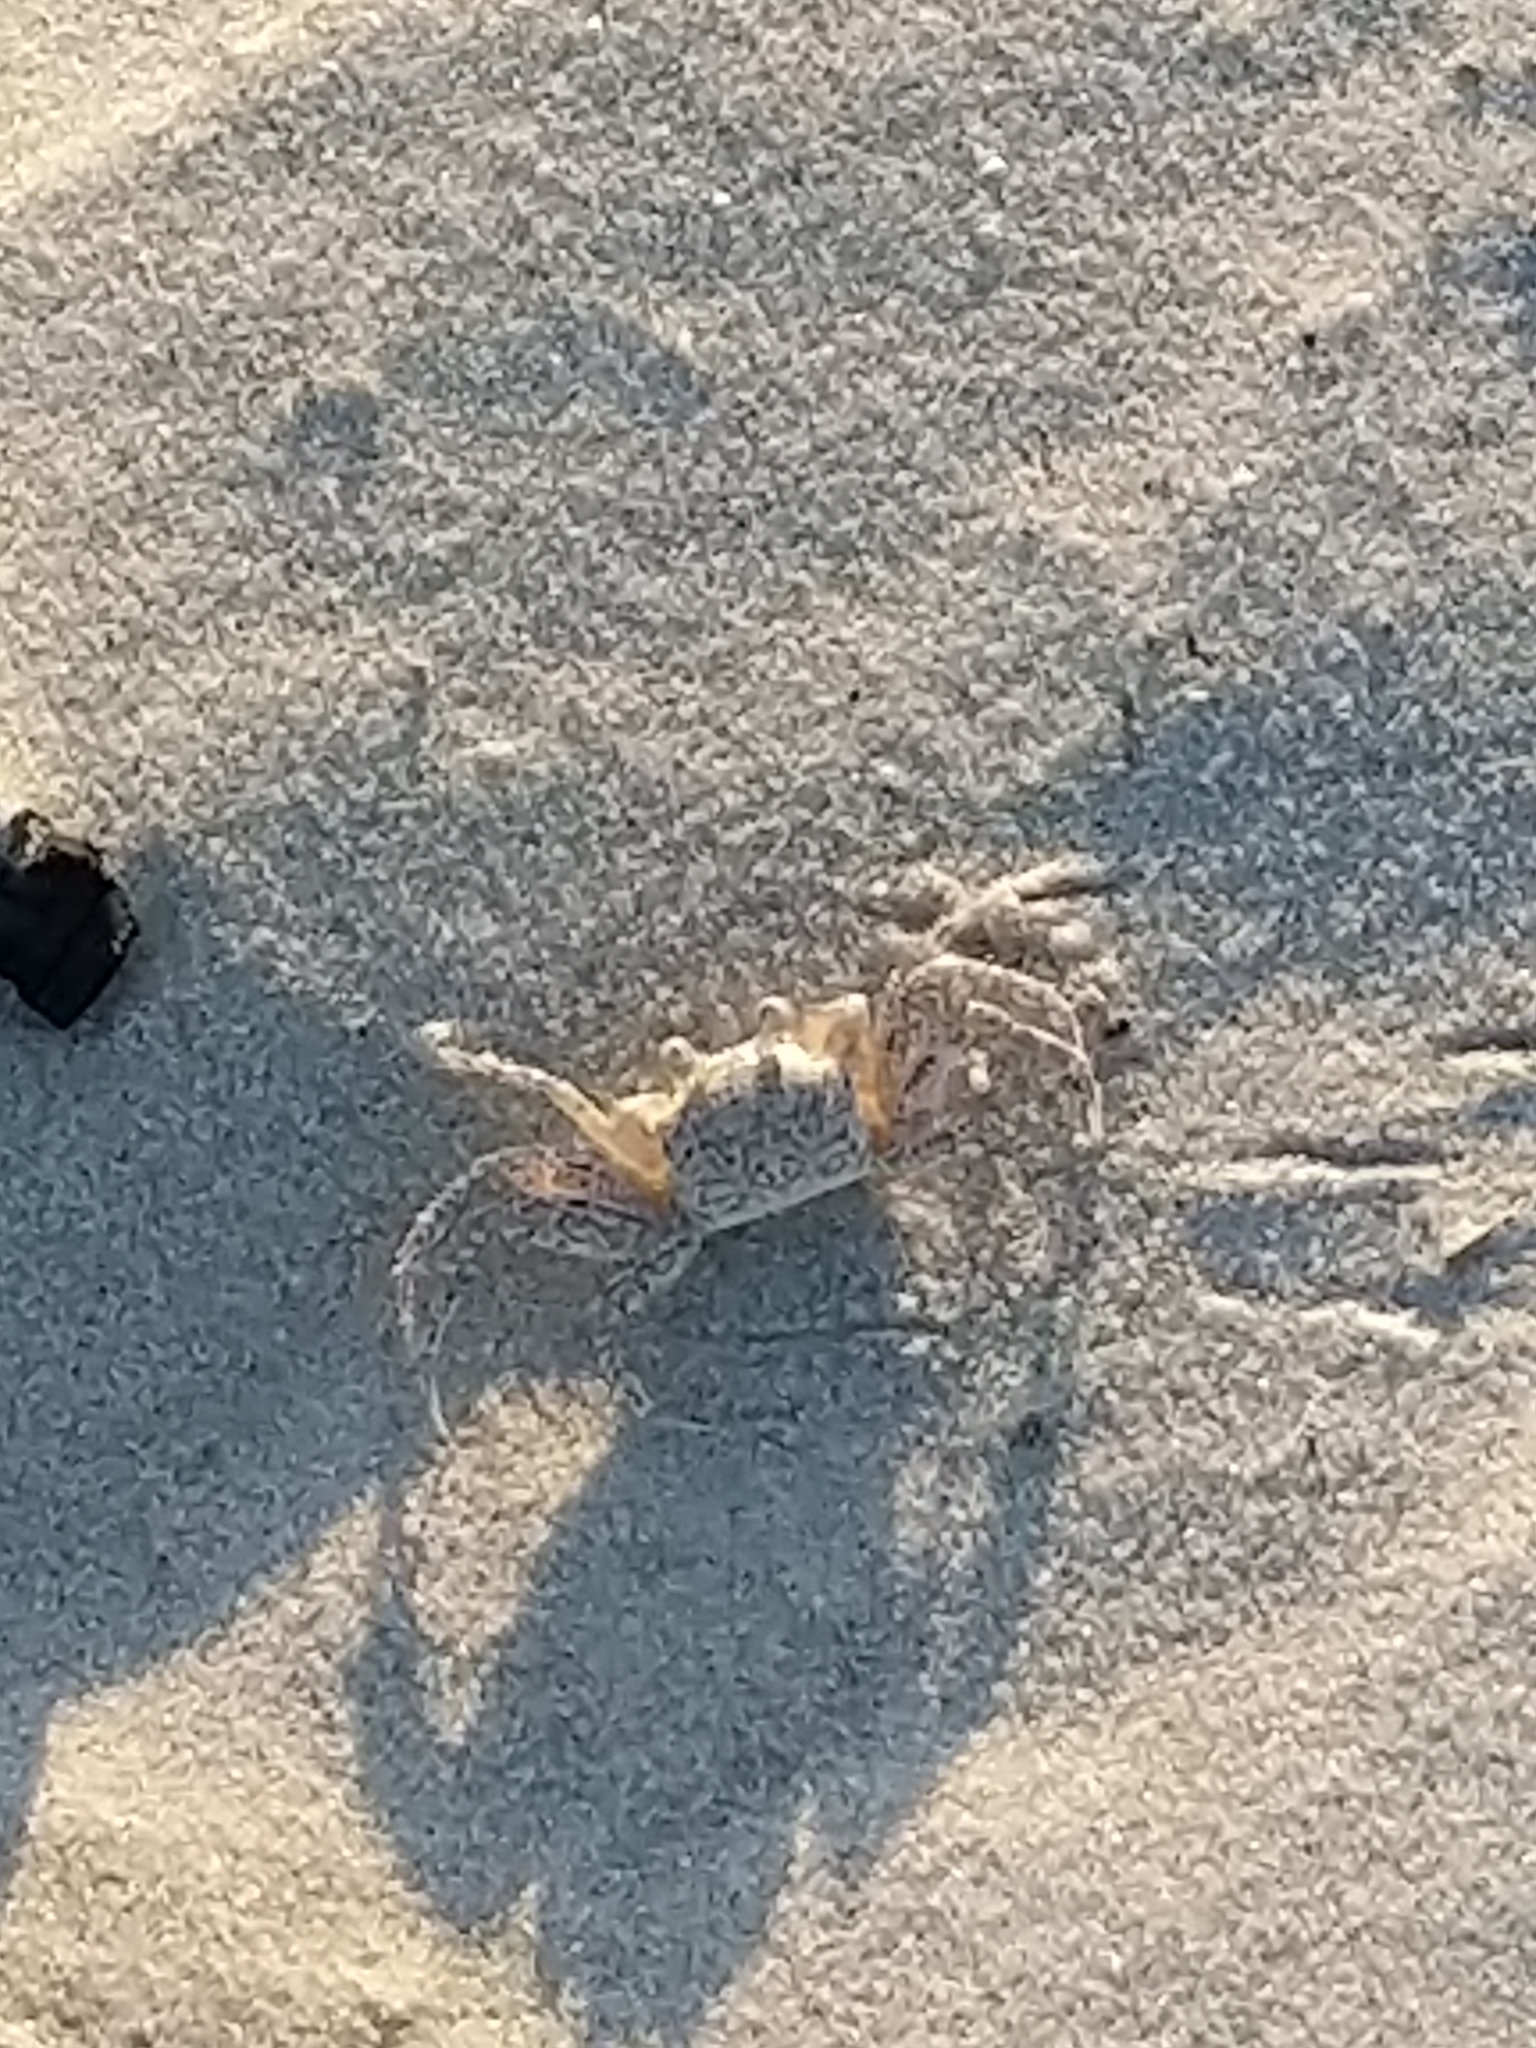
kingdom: Animalia
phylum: Arthropoda
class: Malacostraca
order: Decapoda
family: Ocypodidae
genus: Ocypode
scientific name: Ocypode quadrata
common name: Ghost crab
